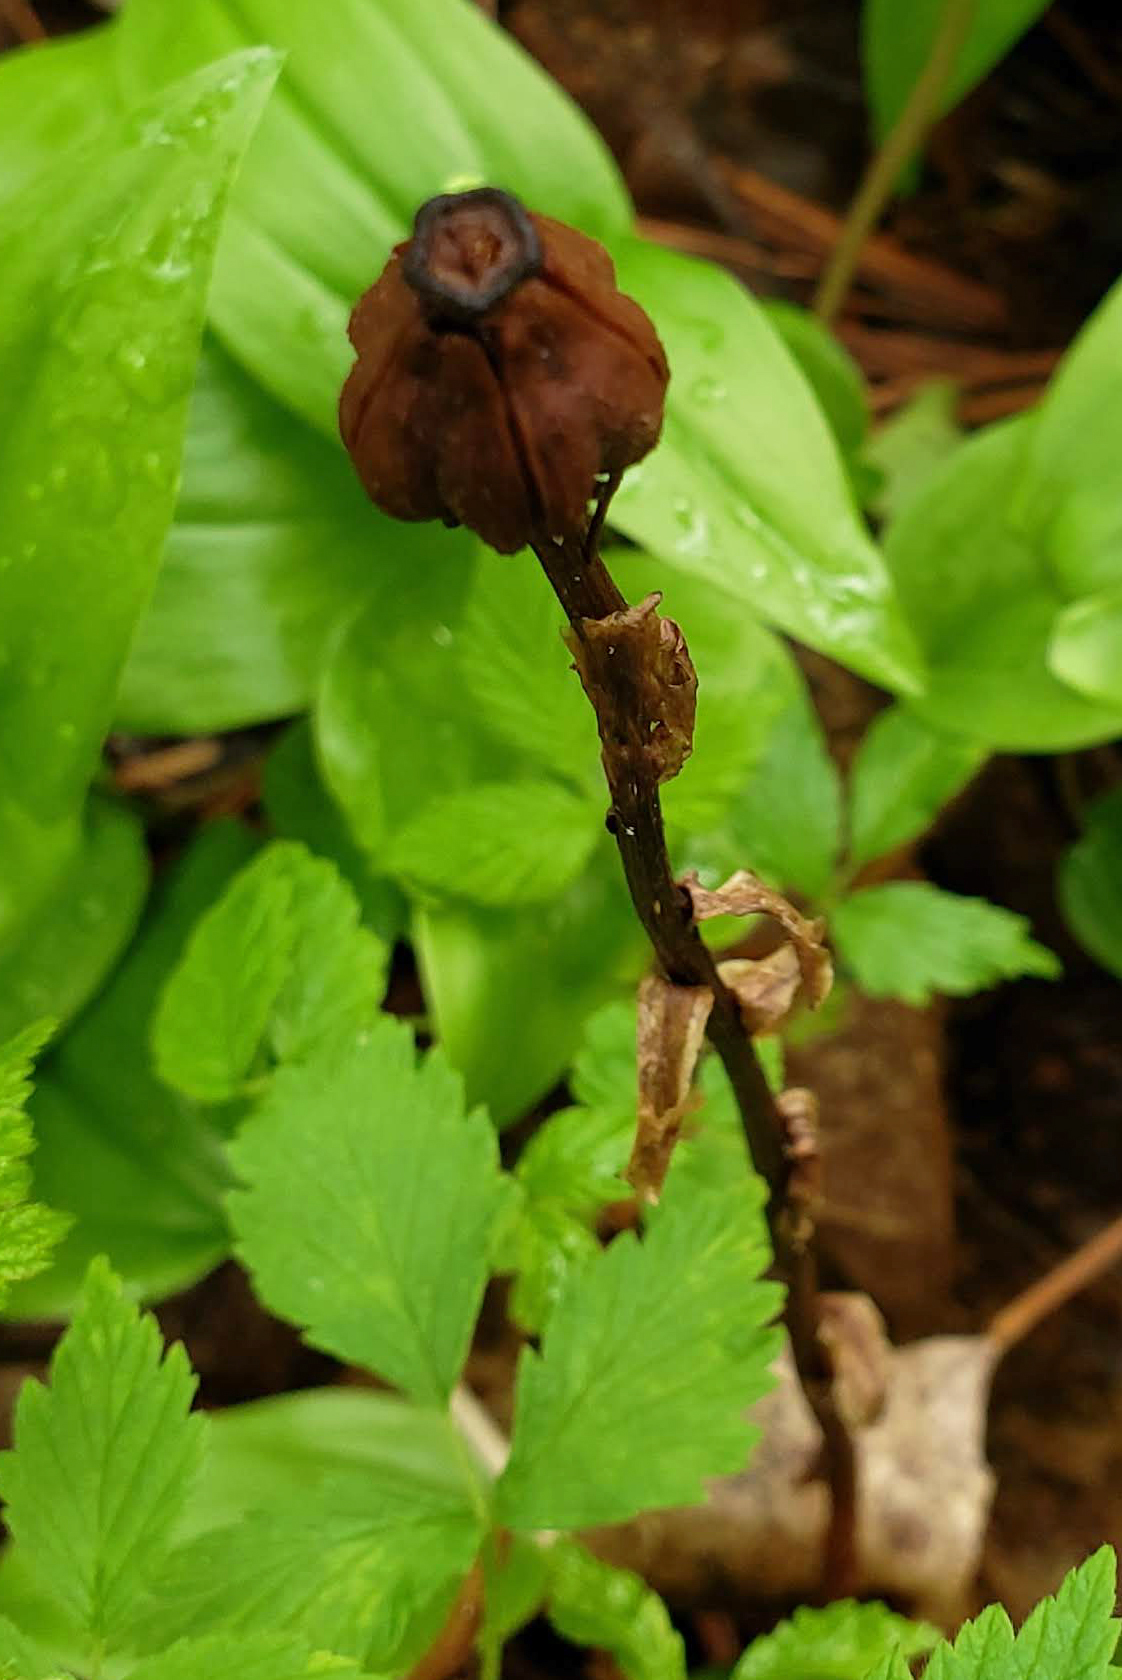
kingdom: Plantae
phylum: Tracheophyta
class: Magnoliopsida
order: Ericales
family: Ericaceae
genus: Monotropa
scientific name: Monotropa uniflora
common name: Convulsion root
